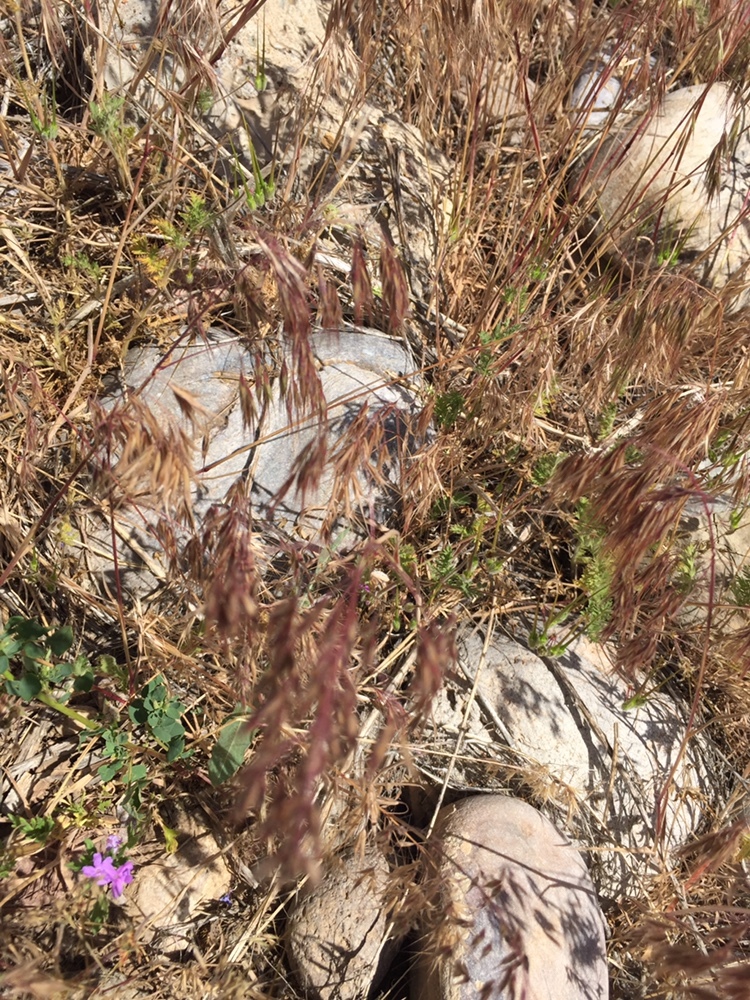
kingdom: Plantae
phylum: Tracheophyta
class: Liliopsida
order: Poales
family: Poaceae
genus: Bromus
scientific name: Bromus tectorum
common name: Cheatgrass
